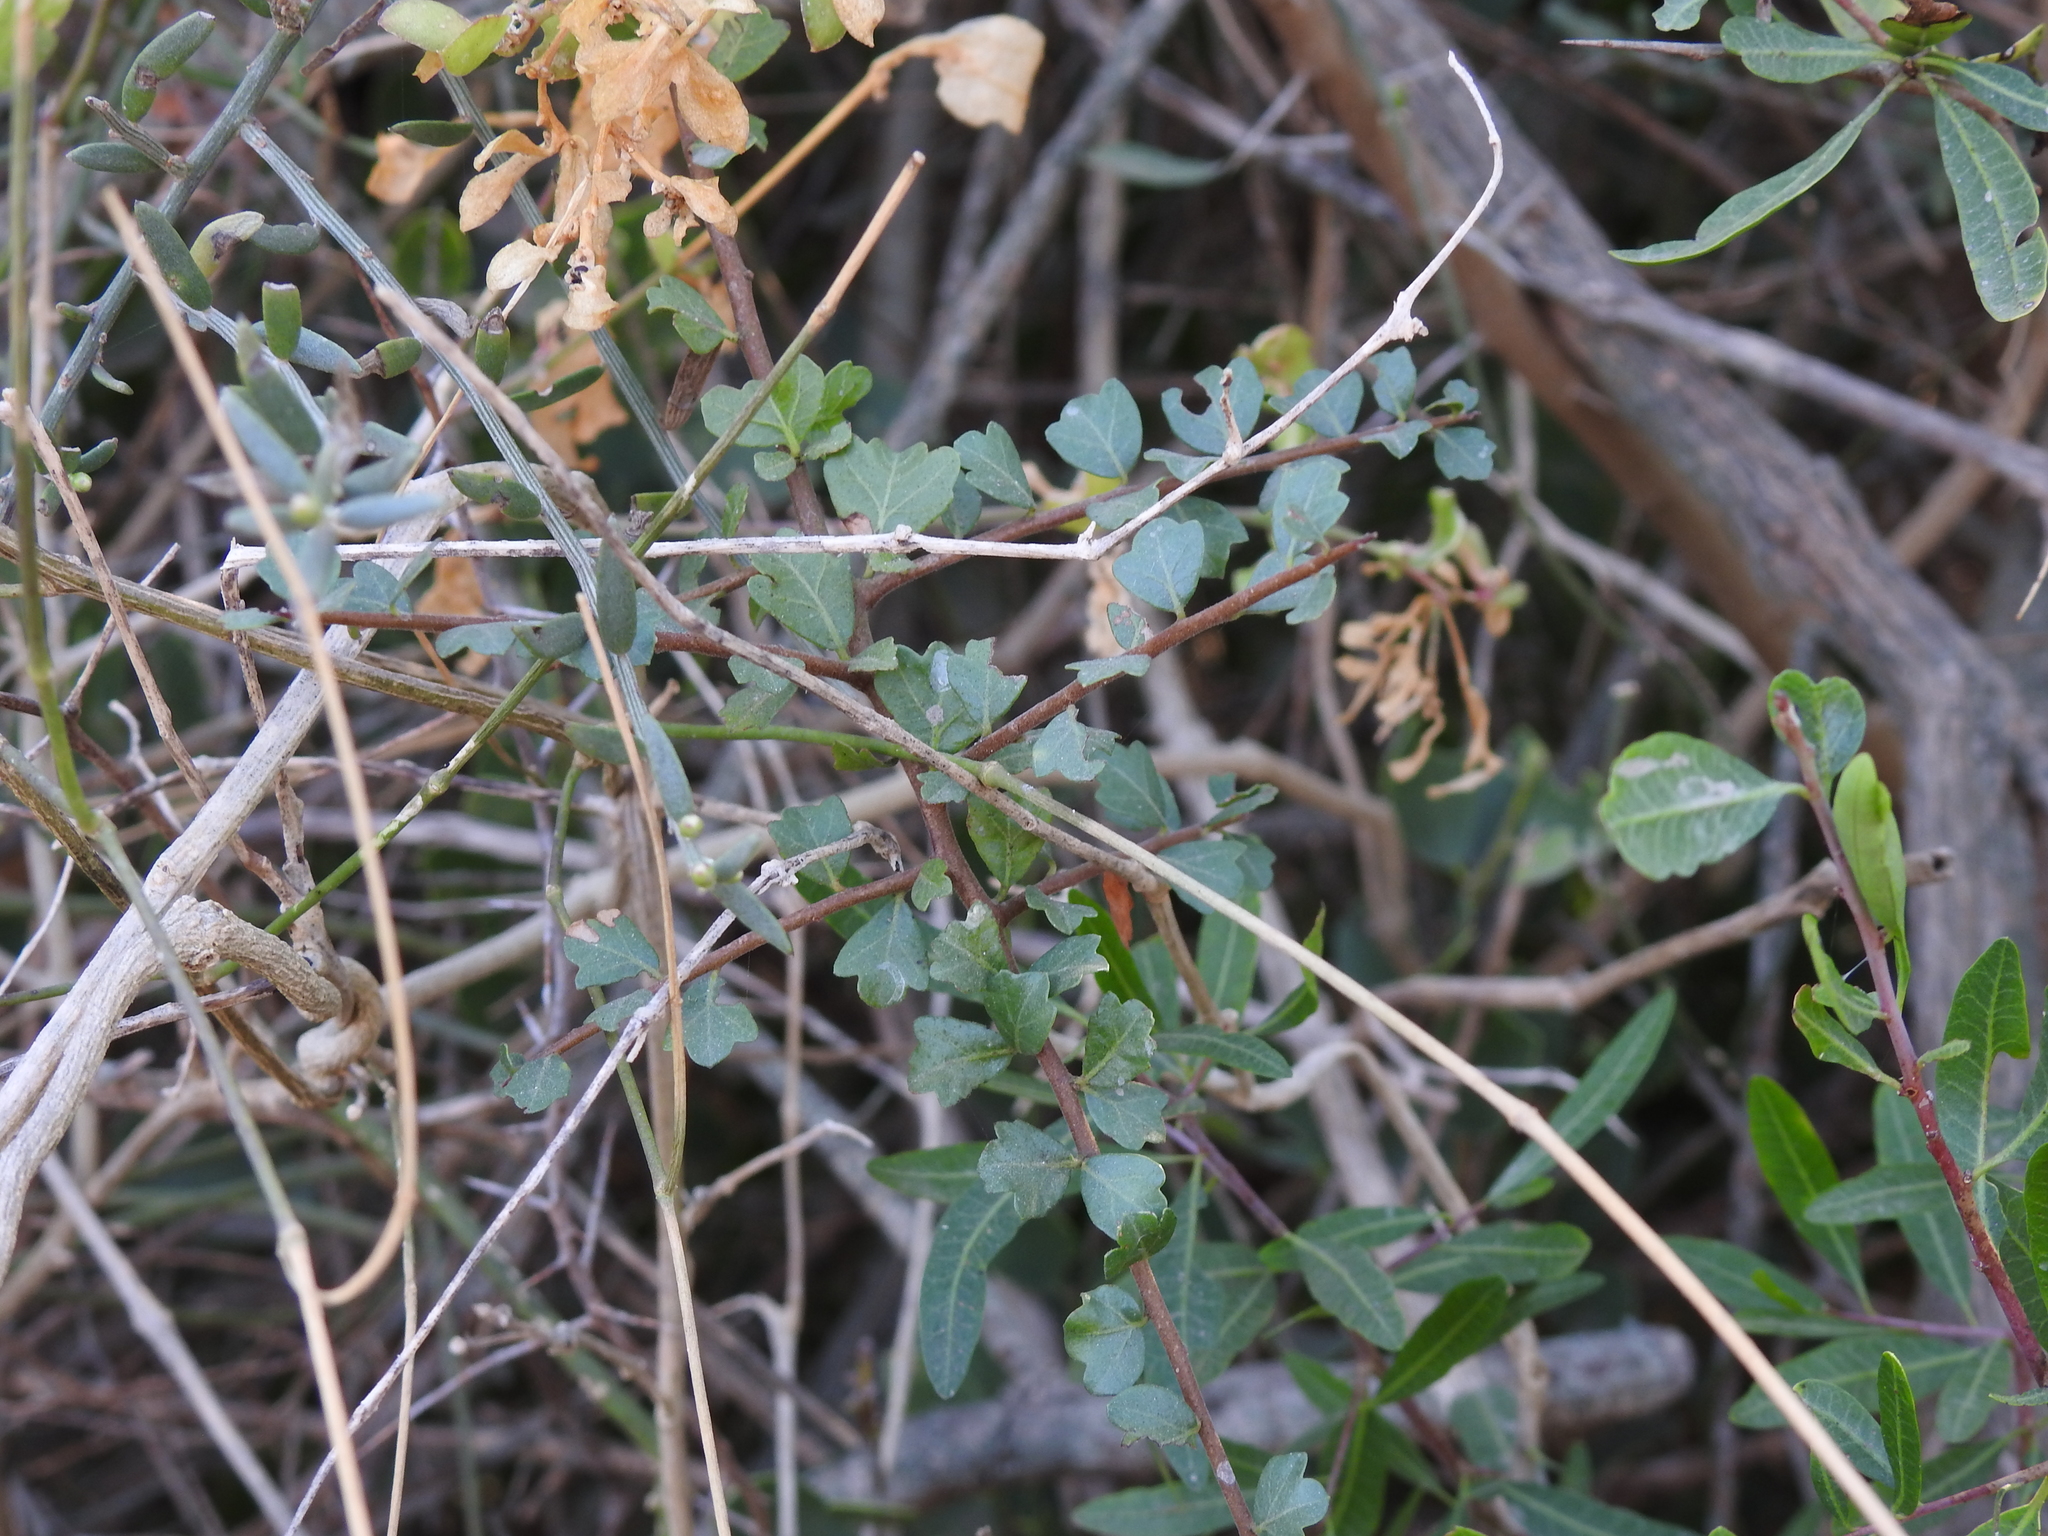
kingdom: Plantae
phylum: Tracheophyta
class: Magnoliopsida
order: Sapindales
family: Anacardiaceae
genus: Schinus
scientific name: Schinus fasciculata
